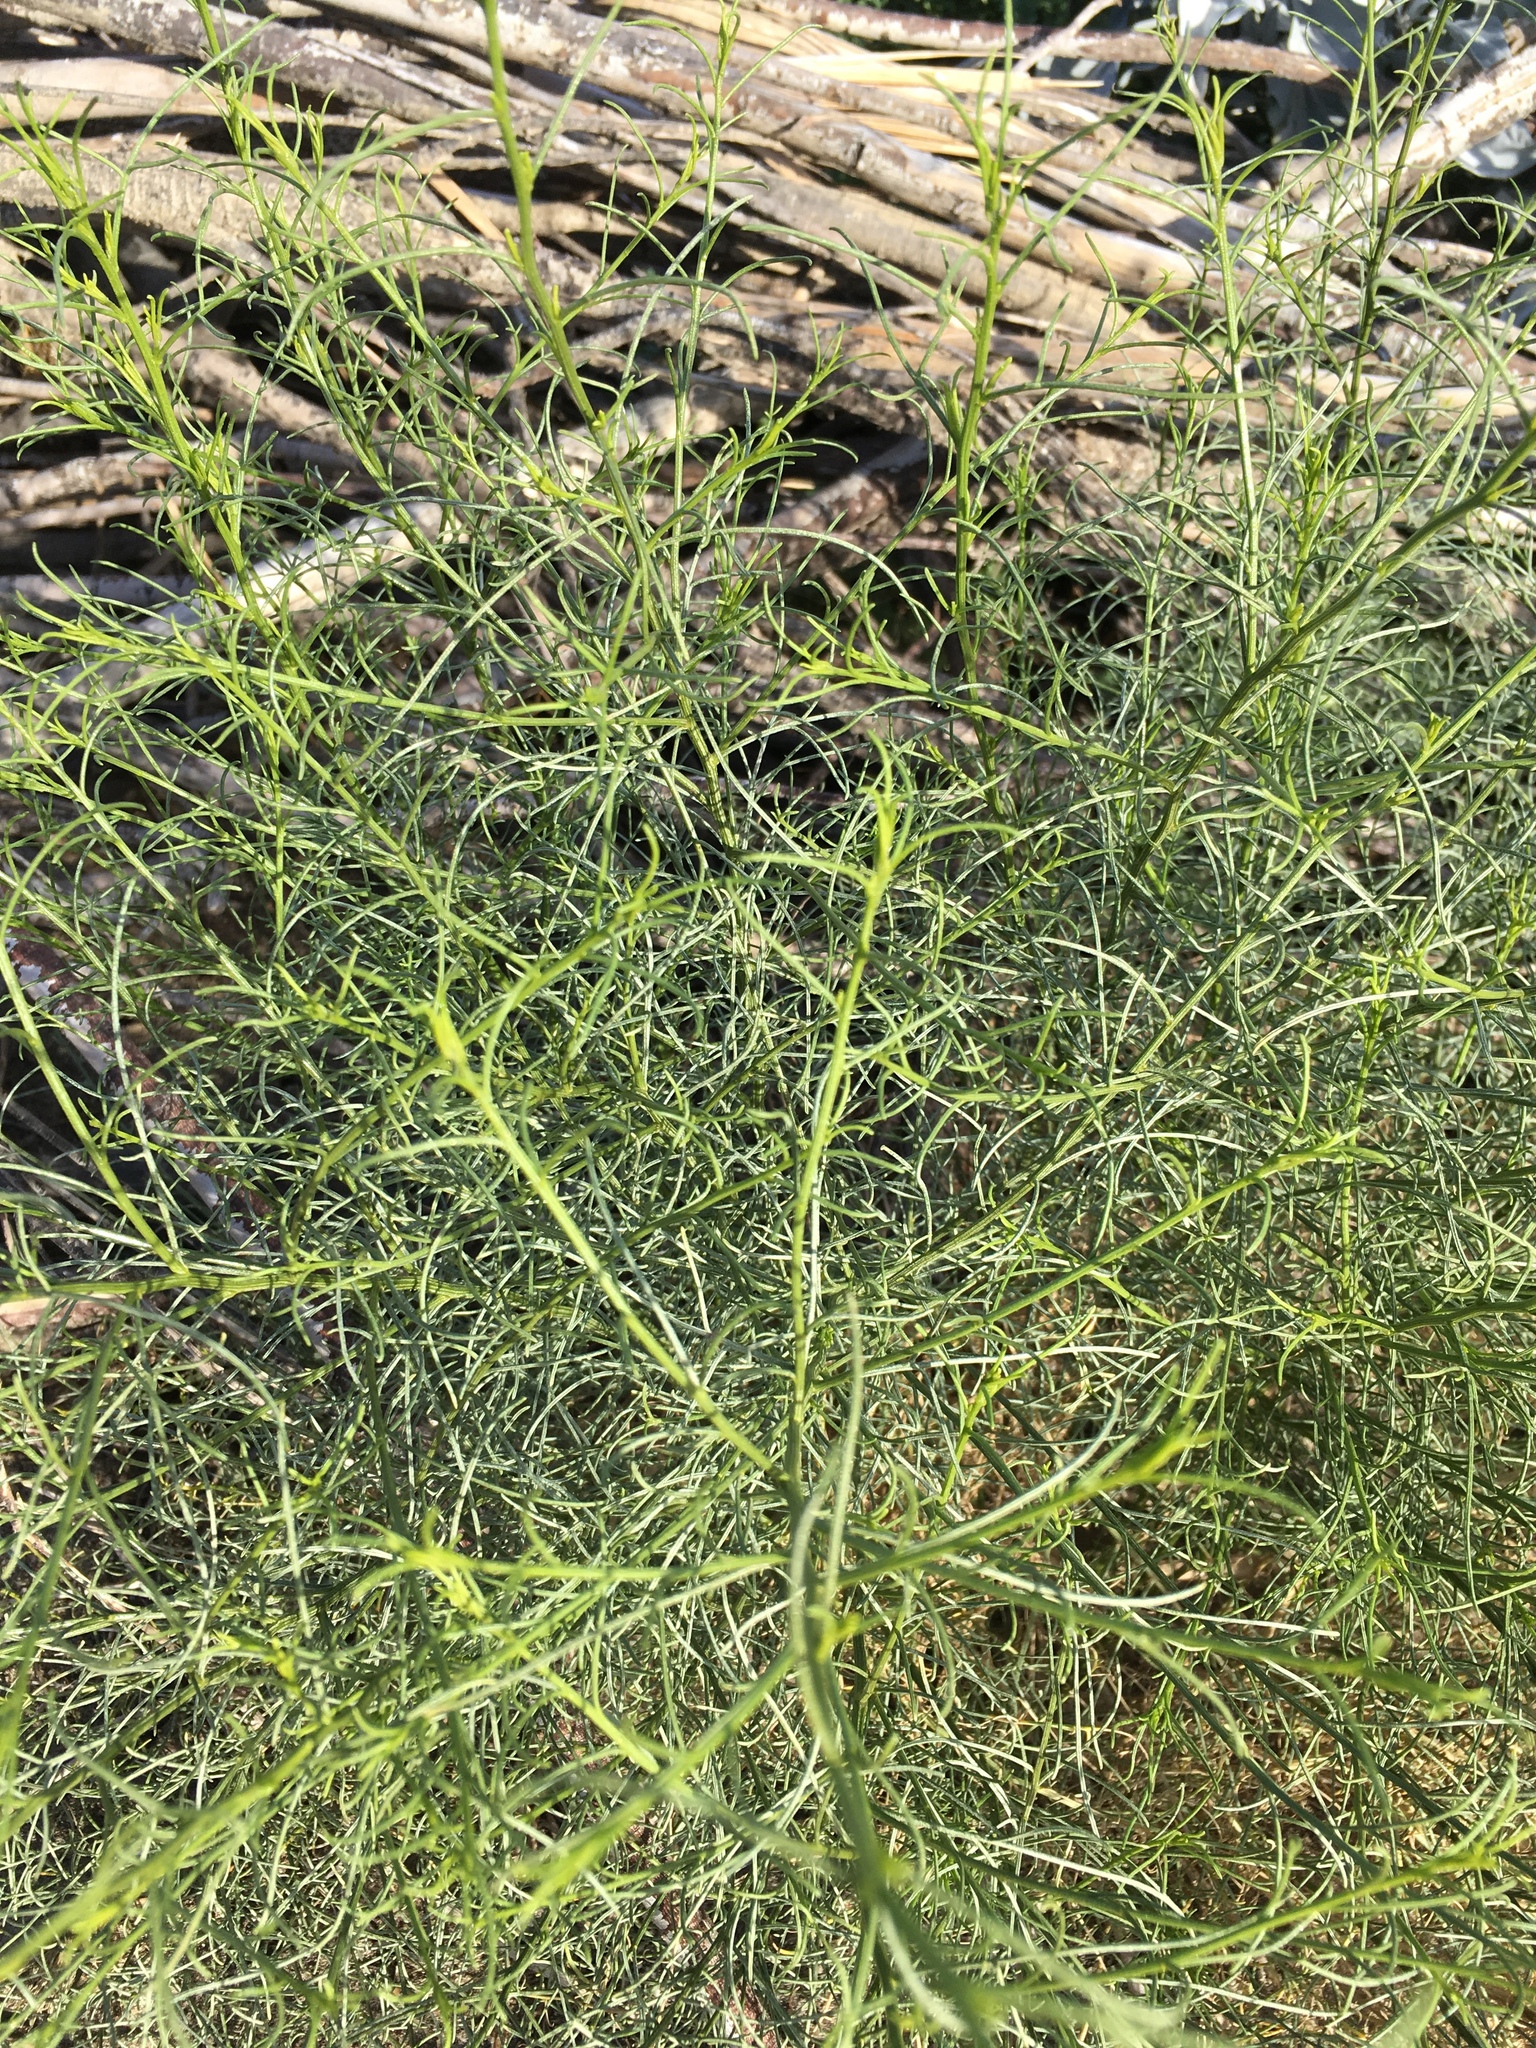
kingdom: Plantae
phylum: Tracheophyta
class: Magnoliopsida
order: Asterales
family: Asteraceae
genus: Ambrosia
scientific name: Ambrosia salsola
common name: Burrobrush
